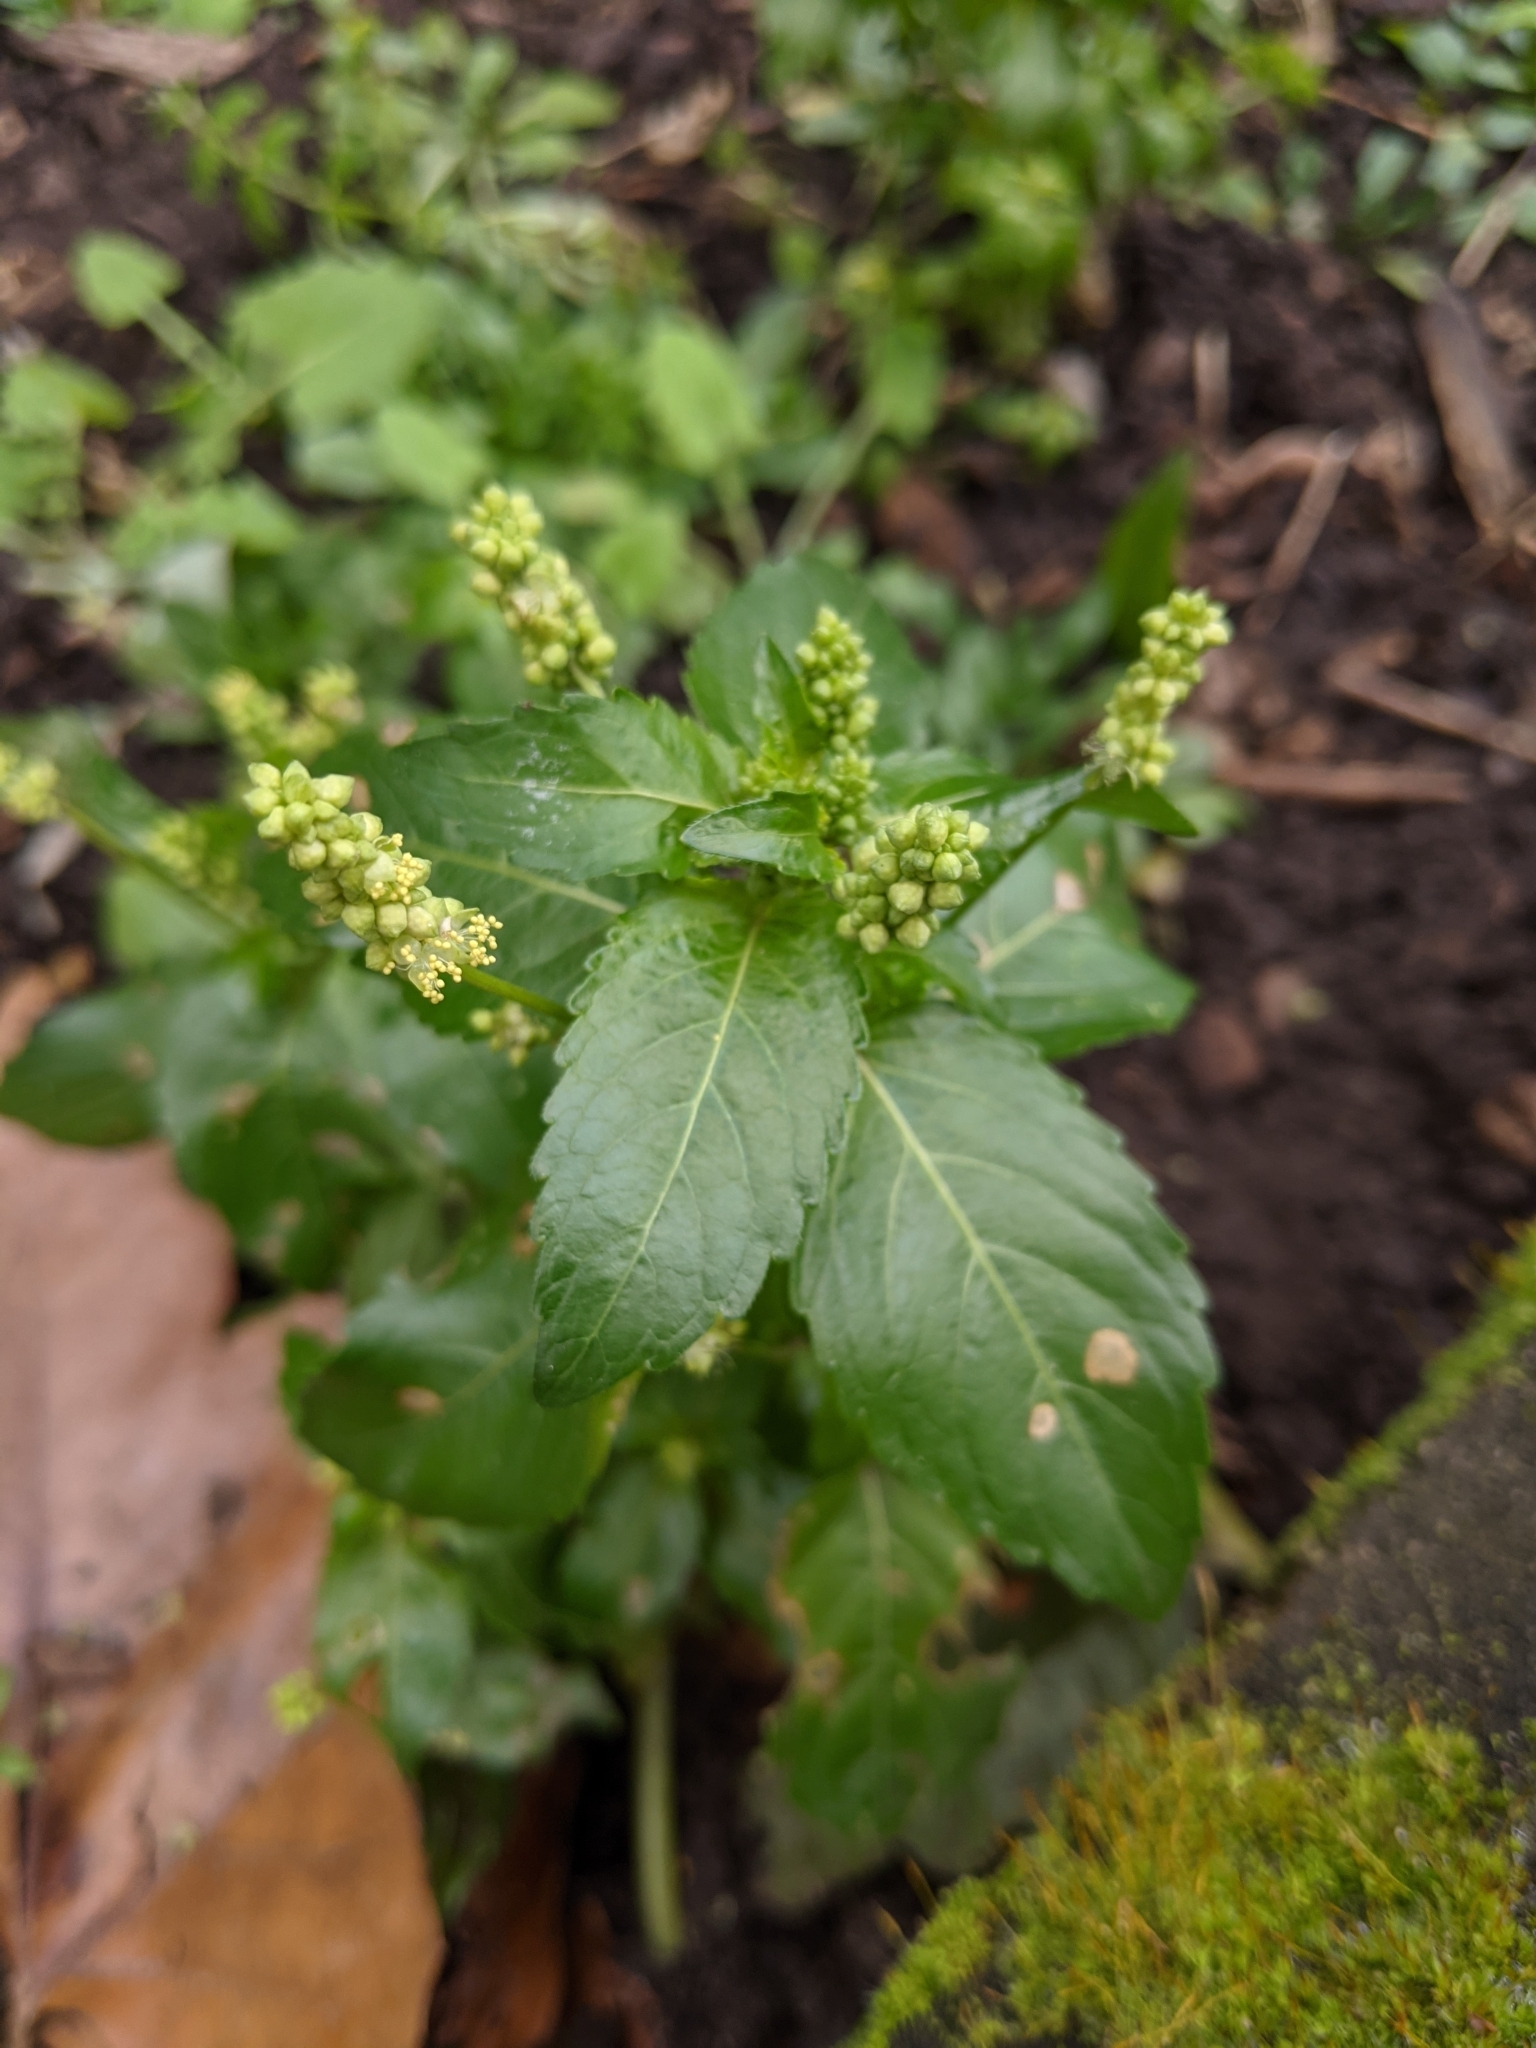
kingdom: Plantae
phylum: Tracheophyta
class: Magnoliopsida
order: Malpighiales
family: Euphorbiaceae
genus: Mercurialis
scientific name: Mercurialis annua
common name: Annual mercury
